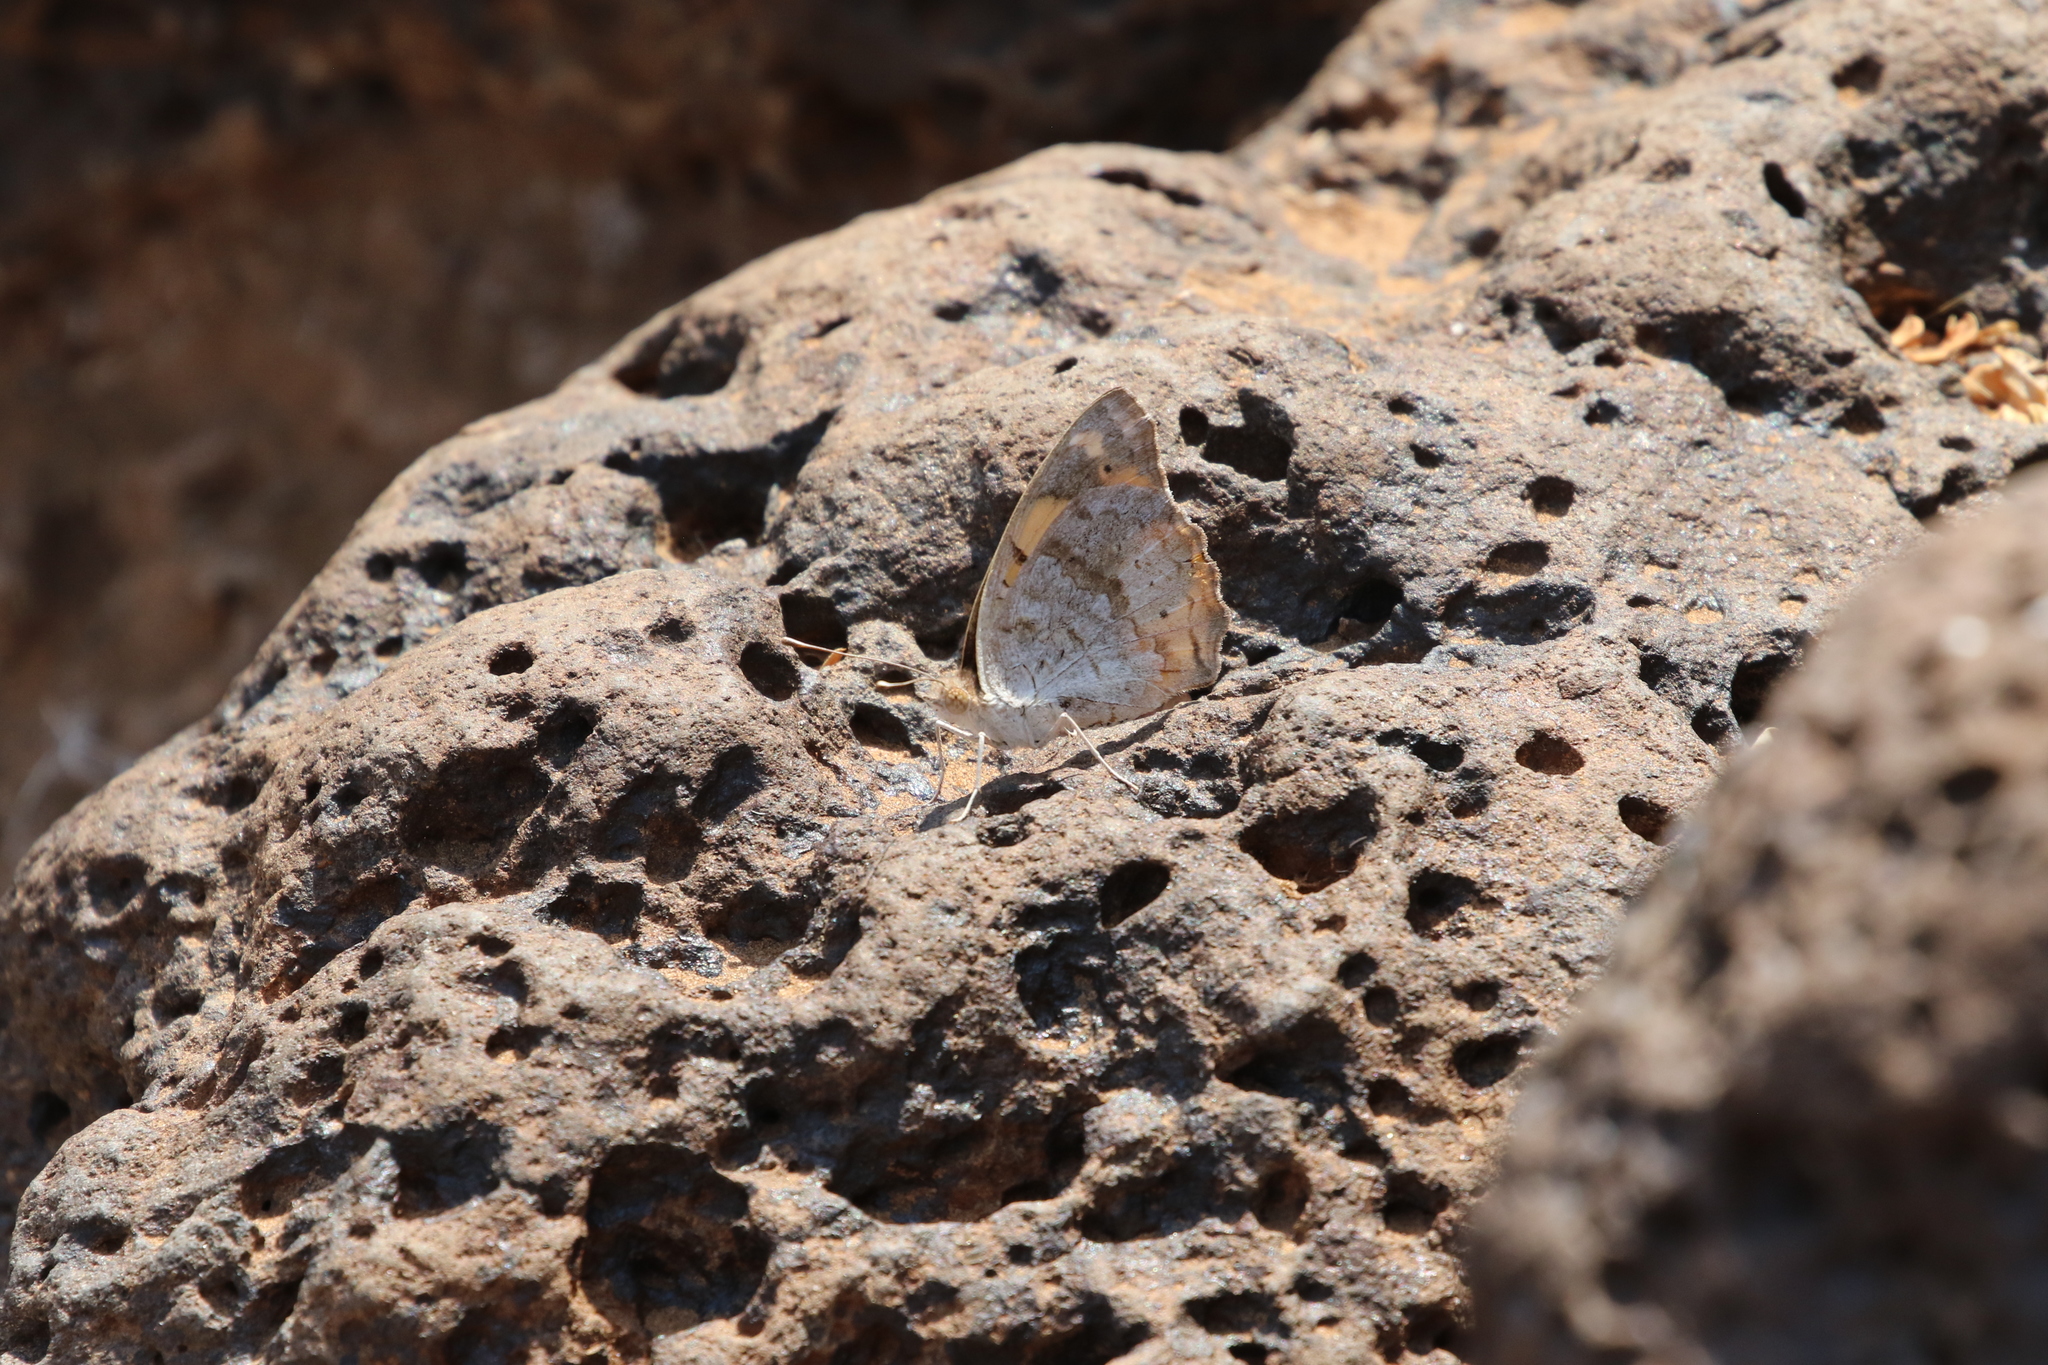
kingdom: Animalia
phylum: Arthropoda
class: Insecta
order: Lepidoptera
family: Nymphalidae
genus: Junonia
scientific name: Junonia hierta
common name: Yellow pansy
